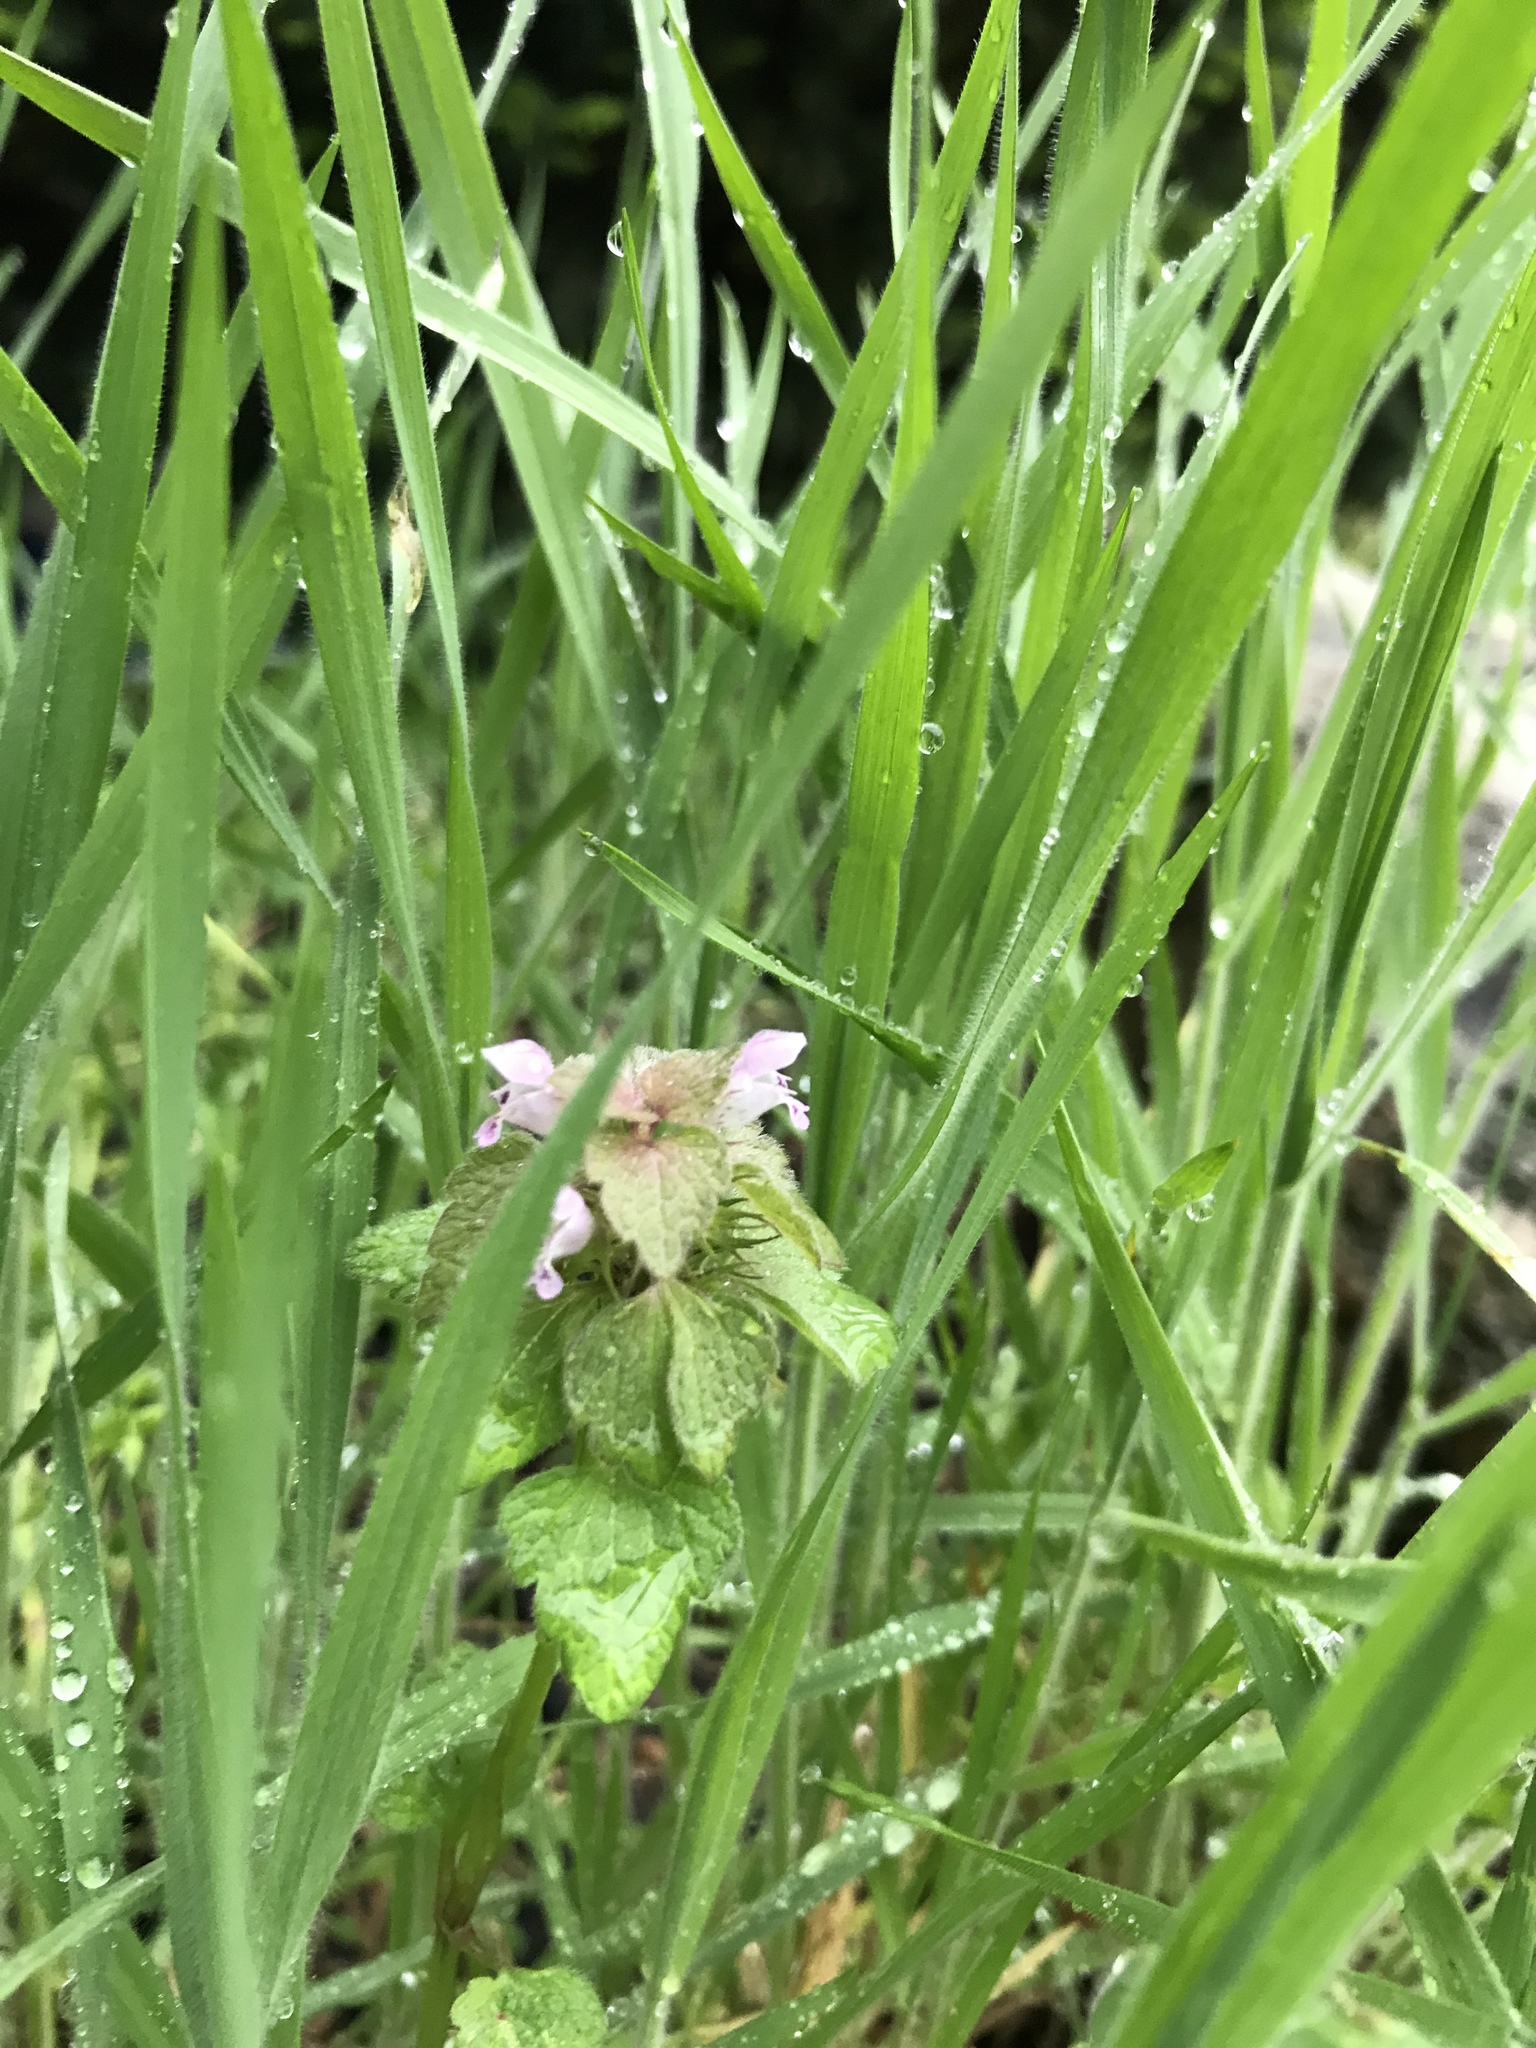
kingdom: Plantae
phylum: Tracheophyta
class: Magnoliopsida
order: Lamiales
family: Lamiaceae
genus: Lamium
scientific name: Lamium purpureum
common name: Red dead-nettle
